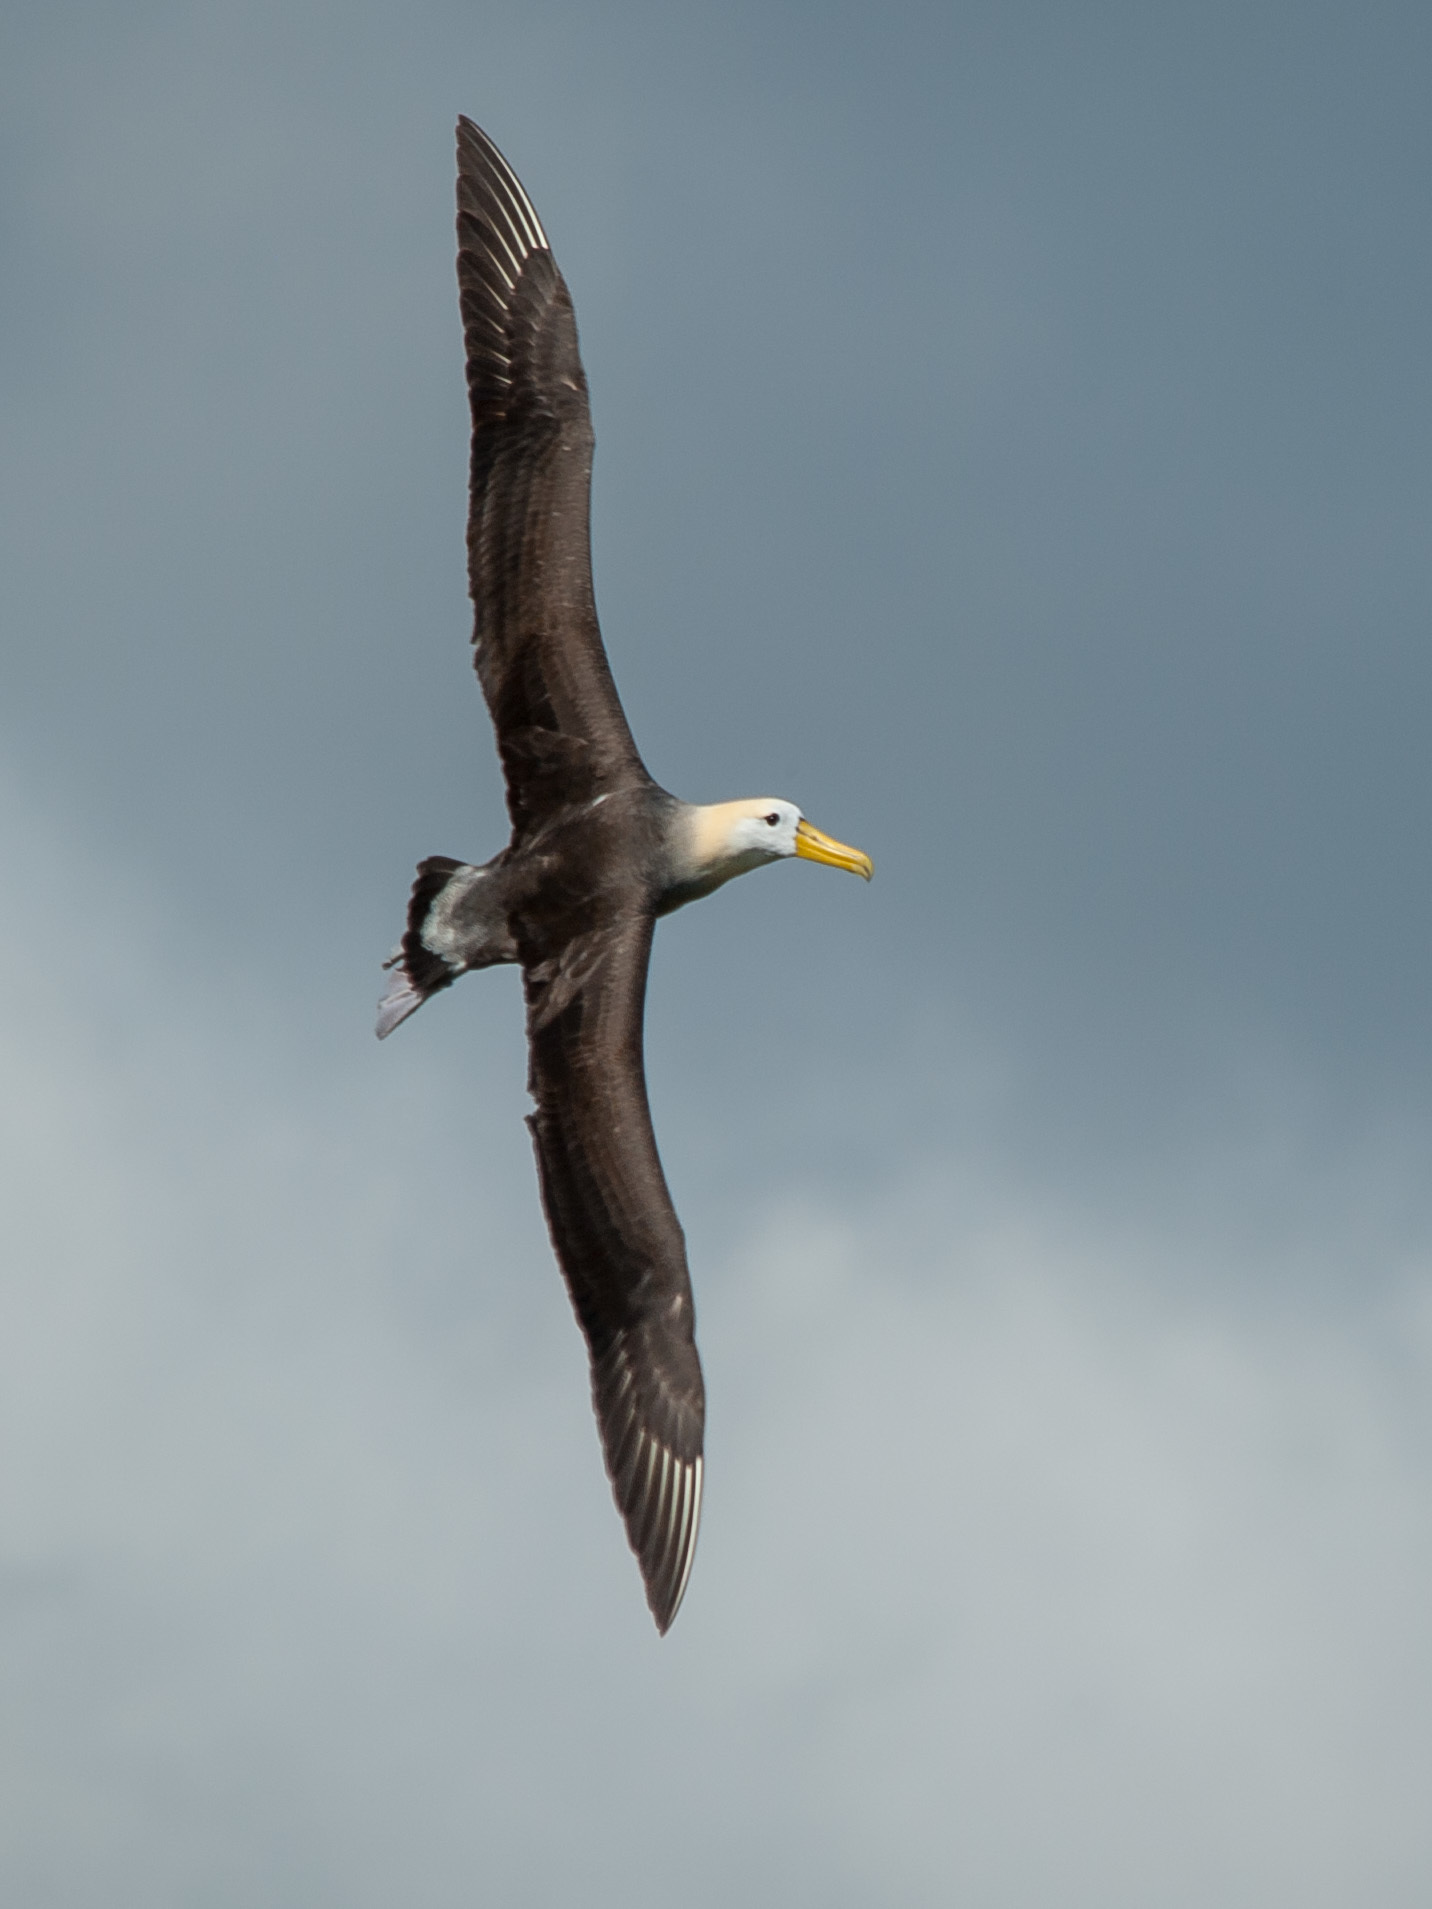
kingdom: Animalia
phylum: Chordata
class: Aves
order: Procellariiformes
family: Diomedeidae
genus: Phoebastria
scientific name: Phoebastria irrorata
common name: Waved albatross
